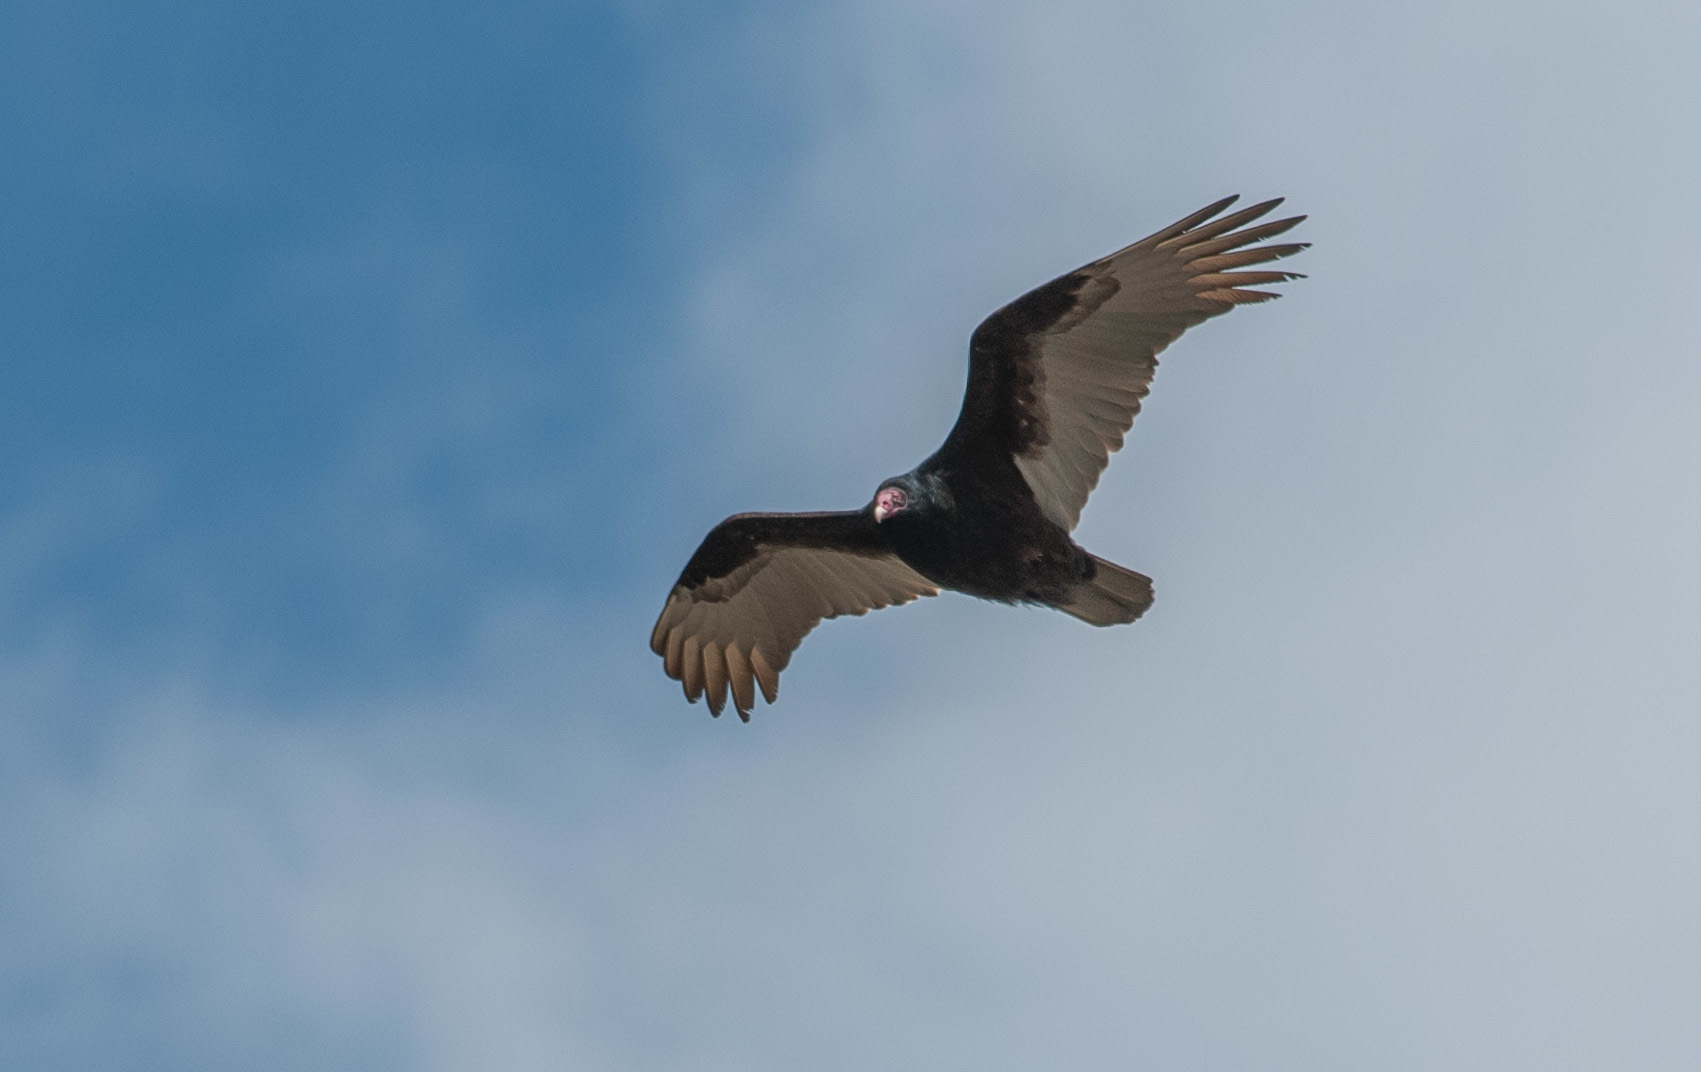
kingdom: Animalia
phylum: Chordata
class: Aves
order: Accipitriformes
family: Cathartidae
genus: Cathartes
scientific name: Cathartes aura
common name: Turkey vulture
